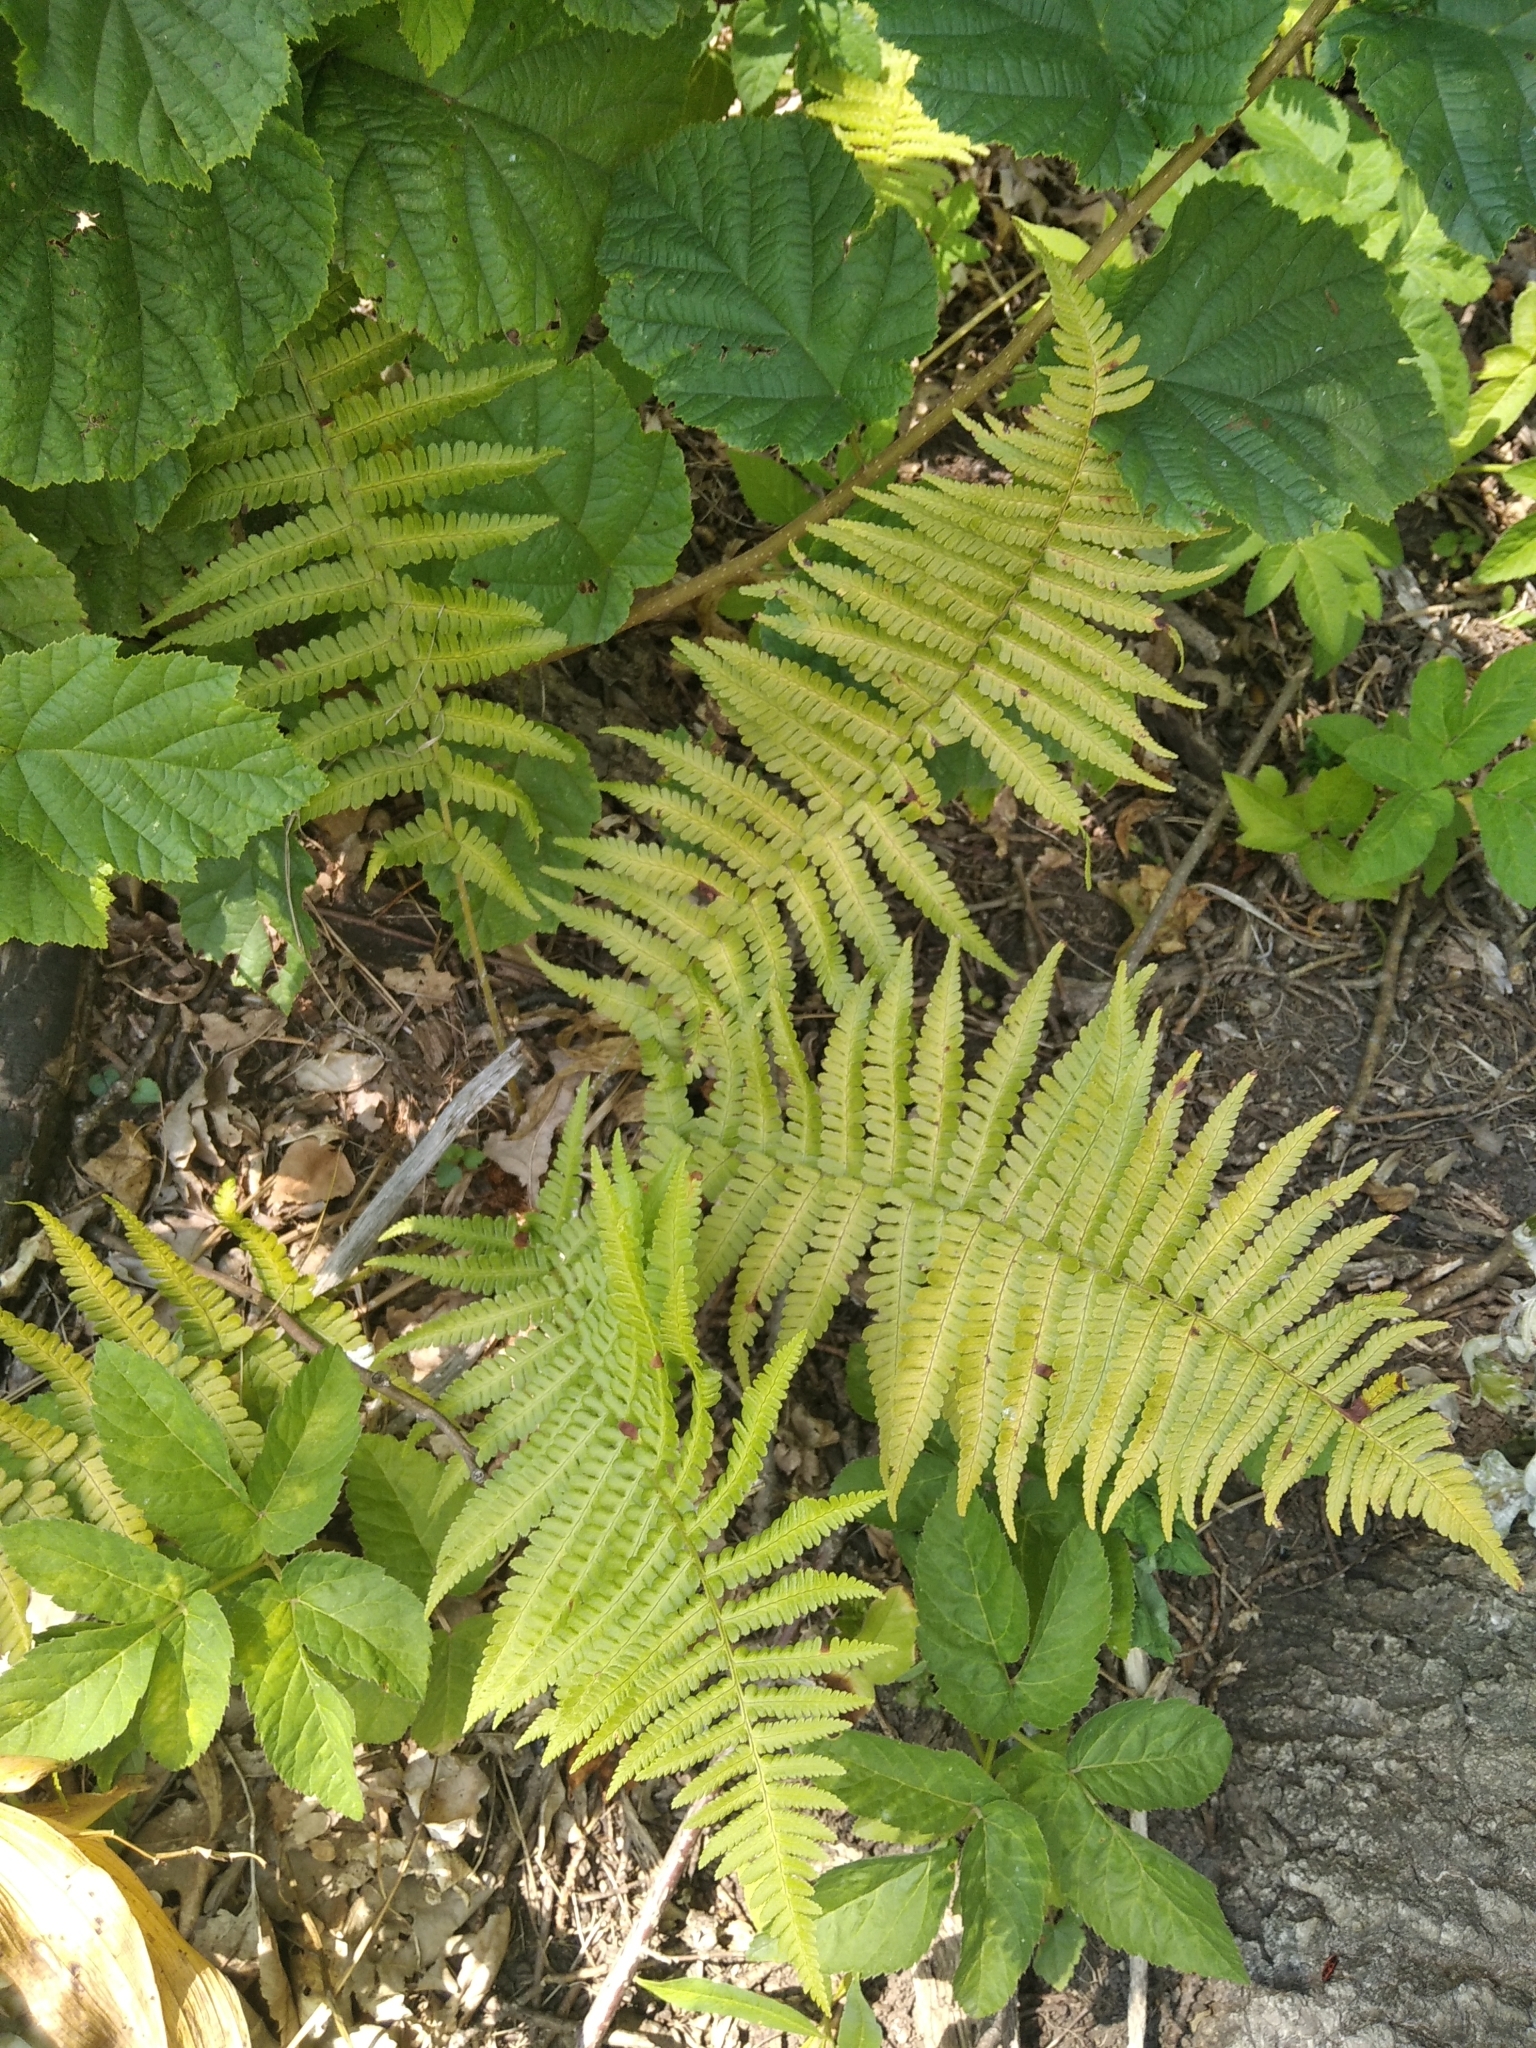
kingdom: Plantae
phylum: Tracheophyta
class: Polypodiopsida
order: Polypodiales
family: Dryopteridaceae
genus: Dryopteris
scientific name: Dryopteris filix-mas
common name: Male fern
